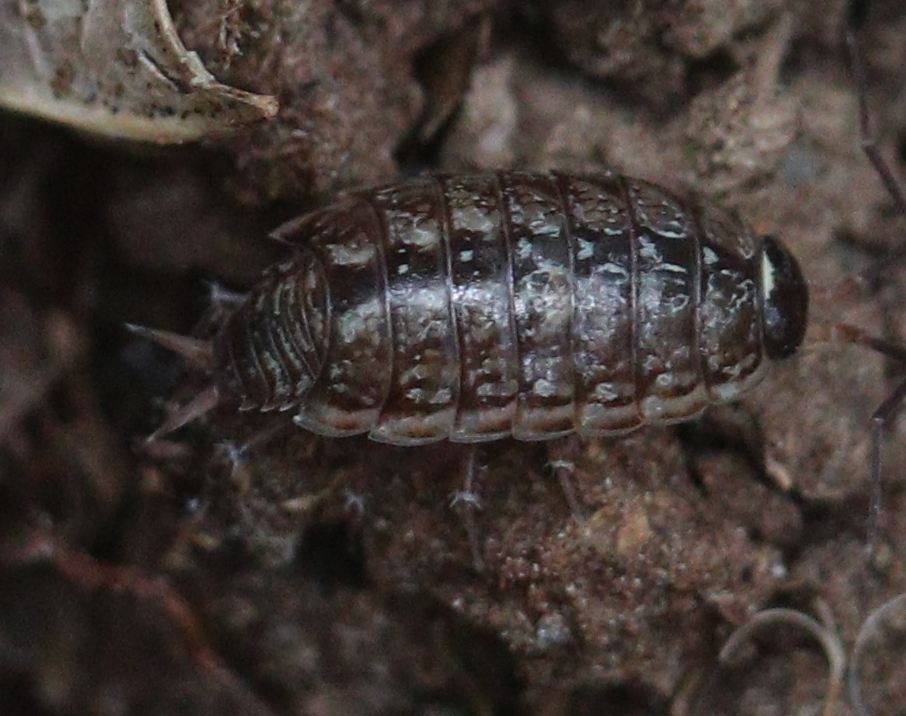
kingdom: Animalia
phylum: Arthropoda
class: Malacostraca
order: Isopoda
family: Philosciidae
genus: Philoscia
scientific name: Philoscia muscorum
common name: Common striped woodlouse
